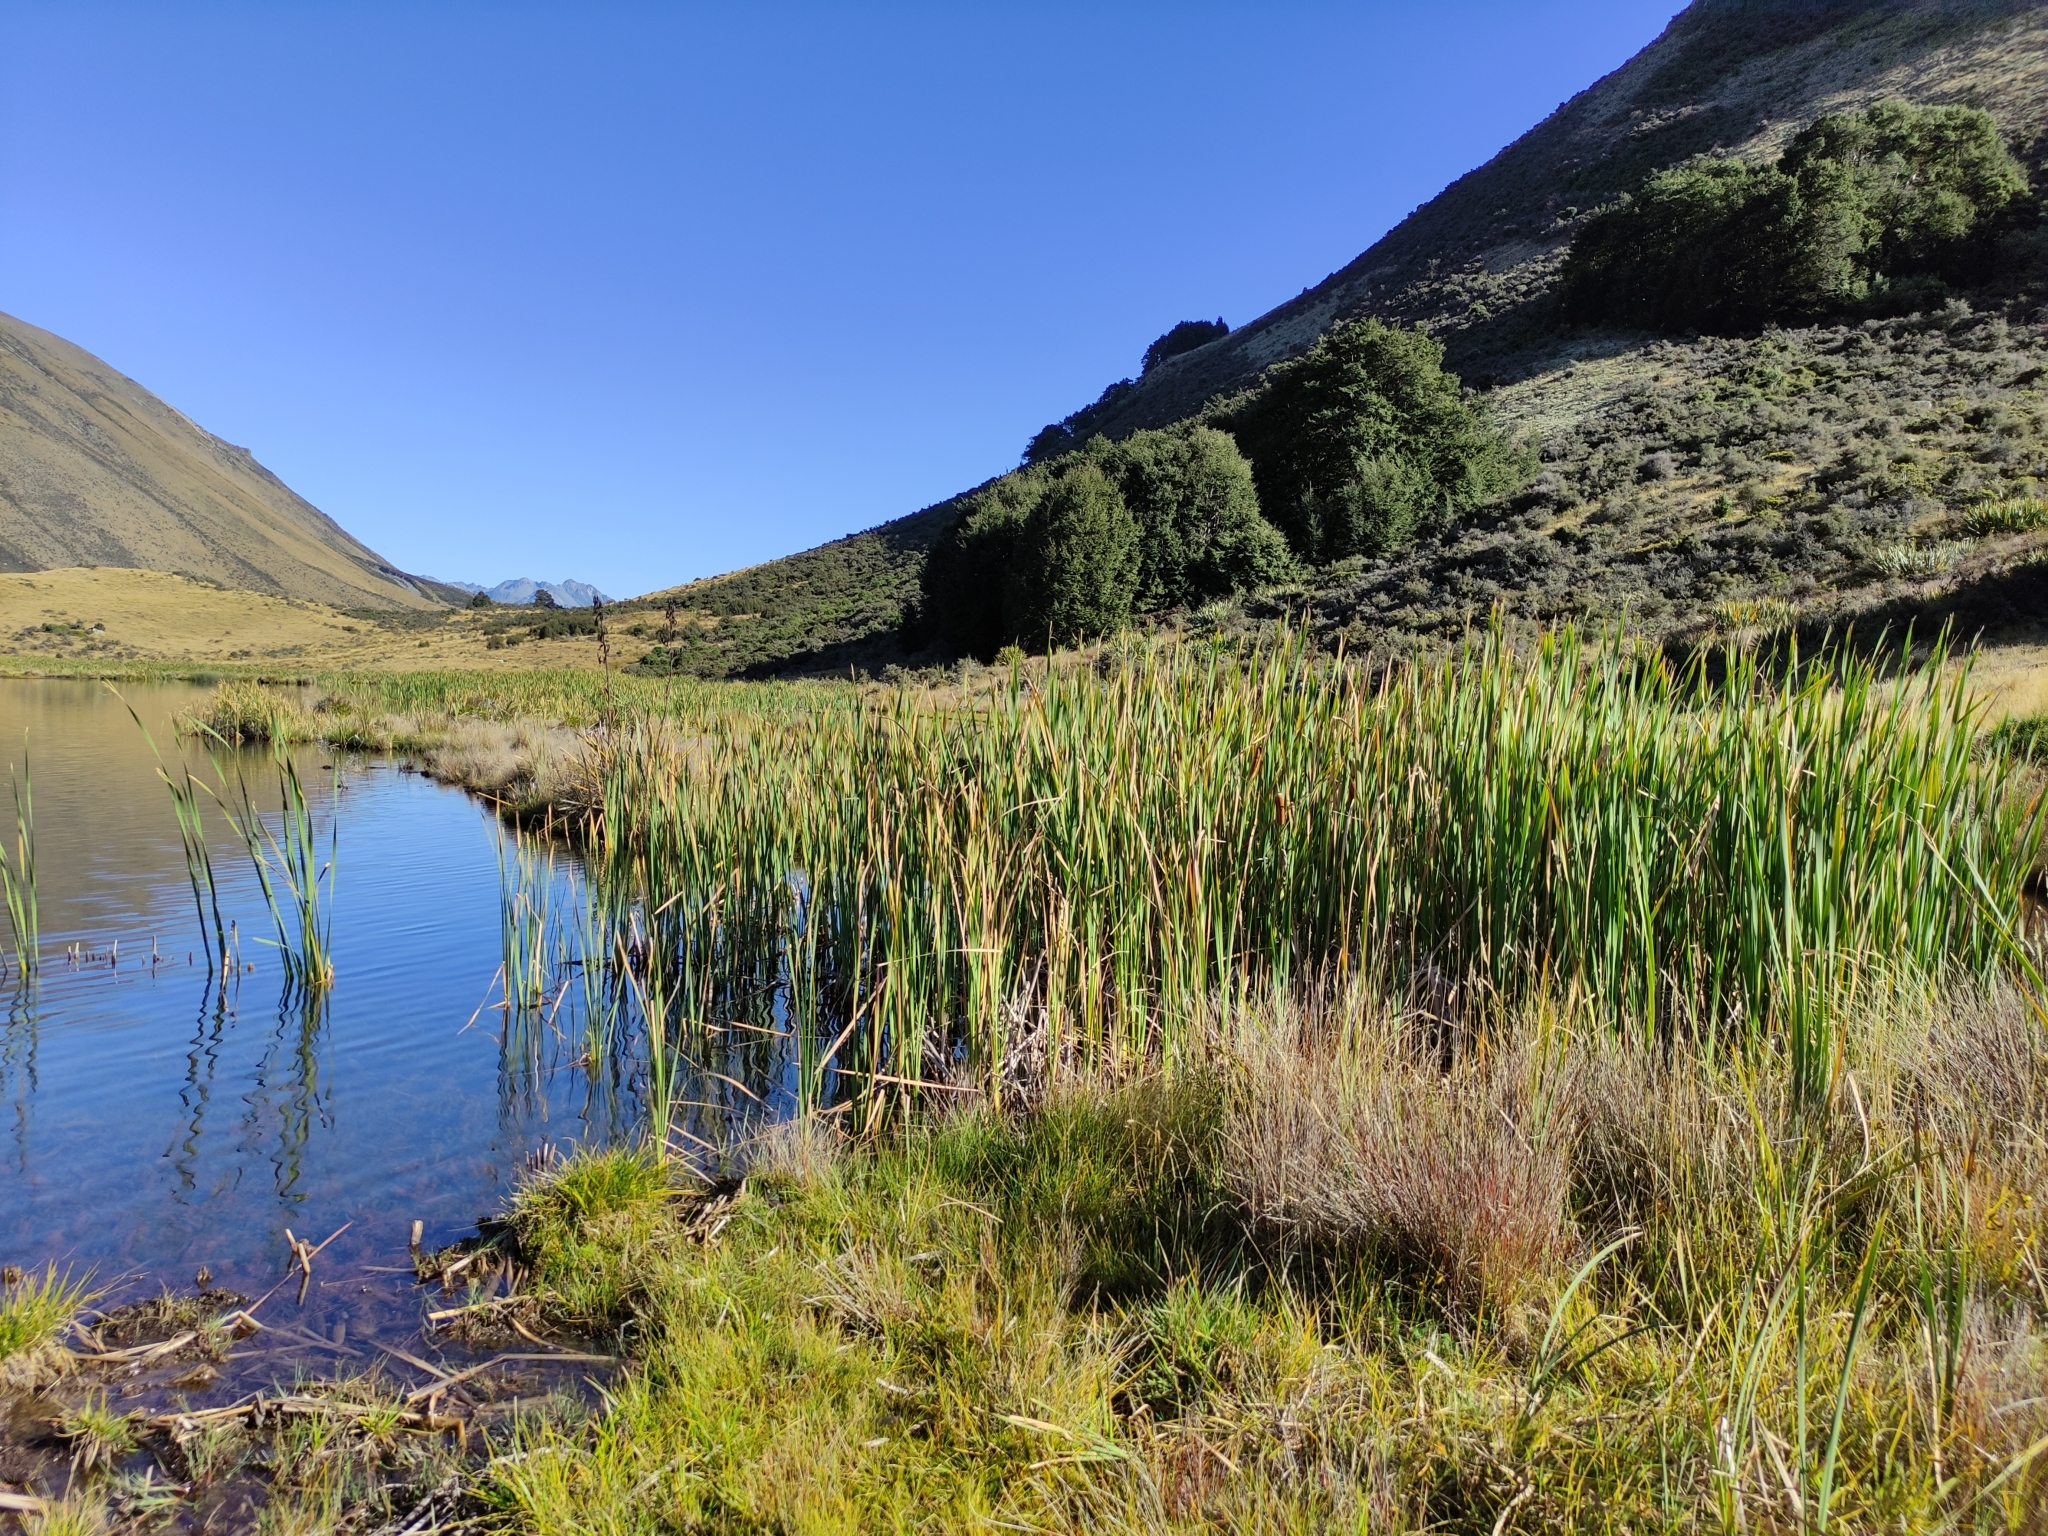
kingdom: Plantae
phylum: Tracheophyta
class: Liliopsida
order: Poales
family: Typhaceae
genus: Typha
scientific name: Typha orientalis
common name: Bullrush
